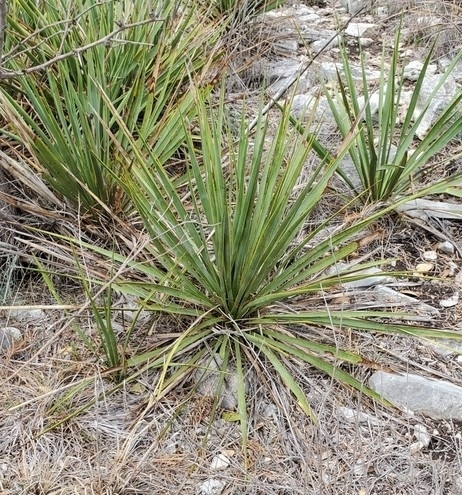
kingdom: Plantae
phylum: Tracheophyta
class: Liliopsida
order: Asparagales
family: Asparagaceae
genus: Yucca
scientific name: Yucca reverchonii
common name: San angelo yucca
